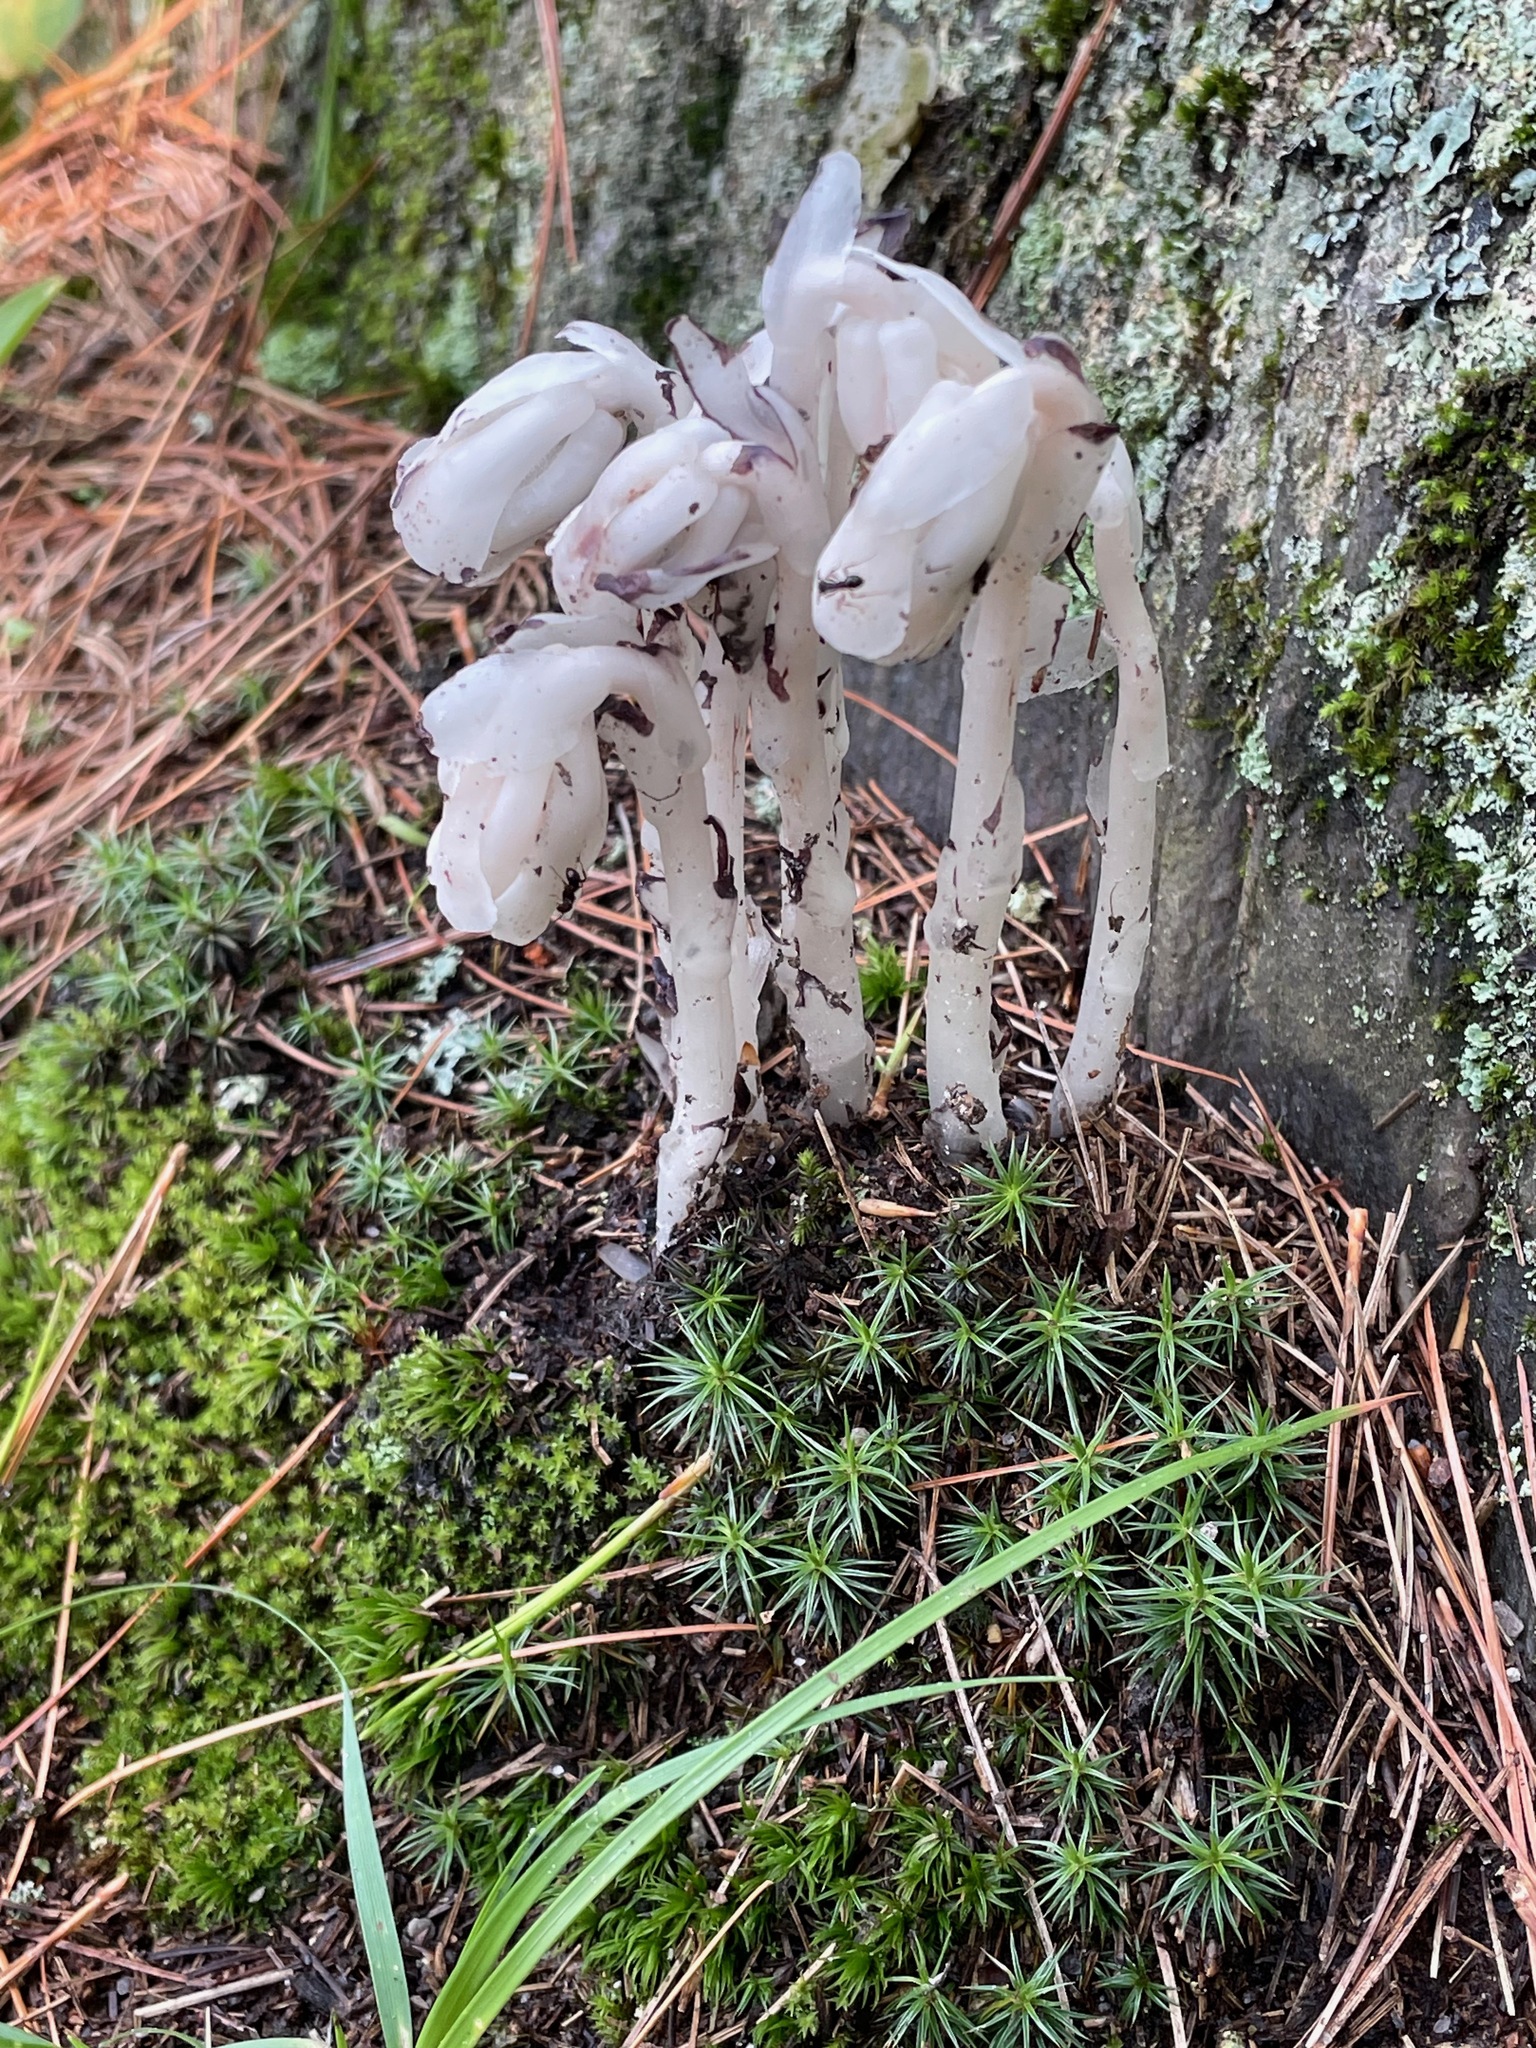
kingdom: Plantae
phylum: Tracheophyta
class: Magnoliopsida
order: Ericales
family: Ericaceae
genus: Monotropa
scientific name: Monotropa uniflora
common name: Convulsion root
